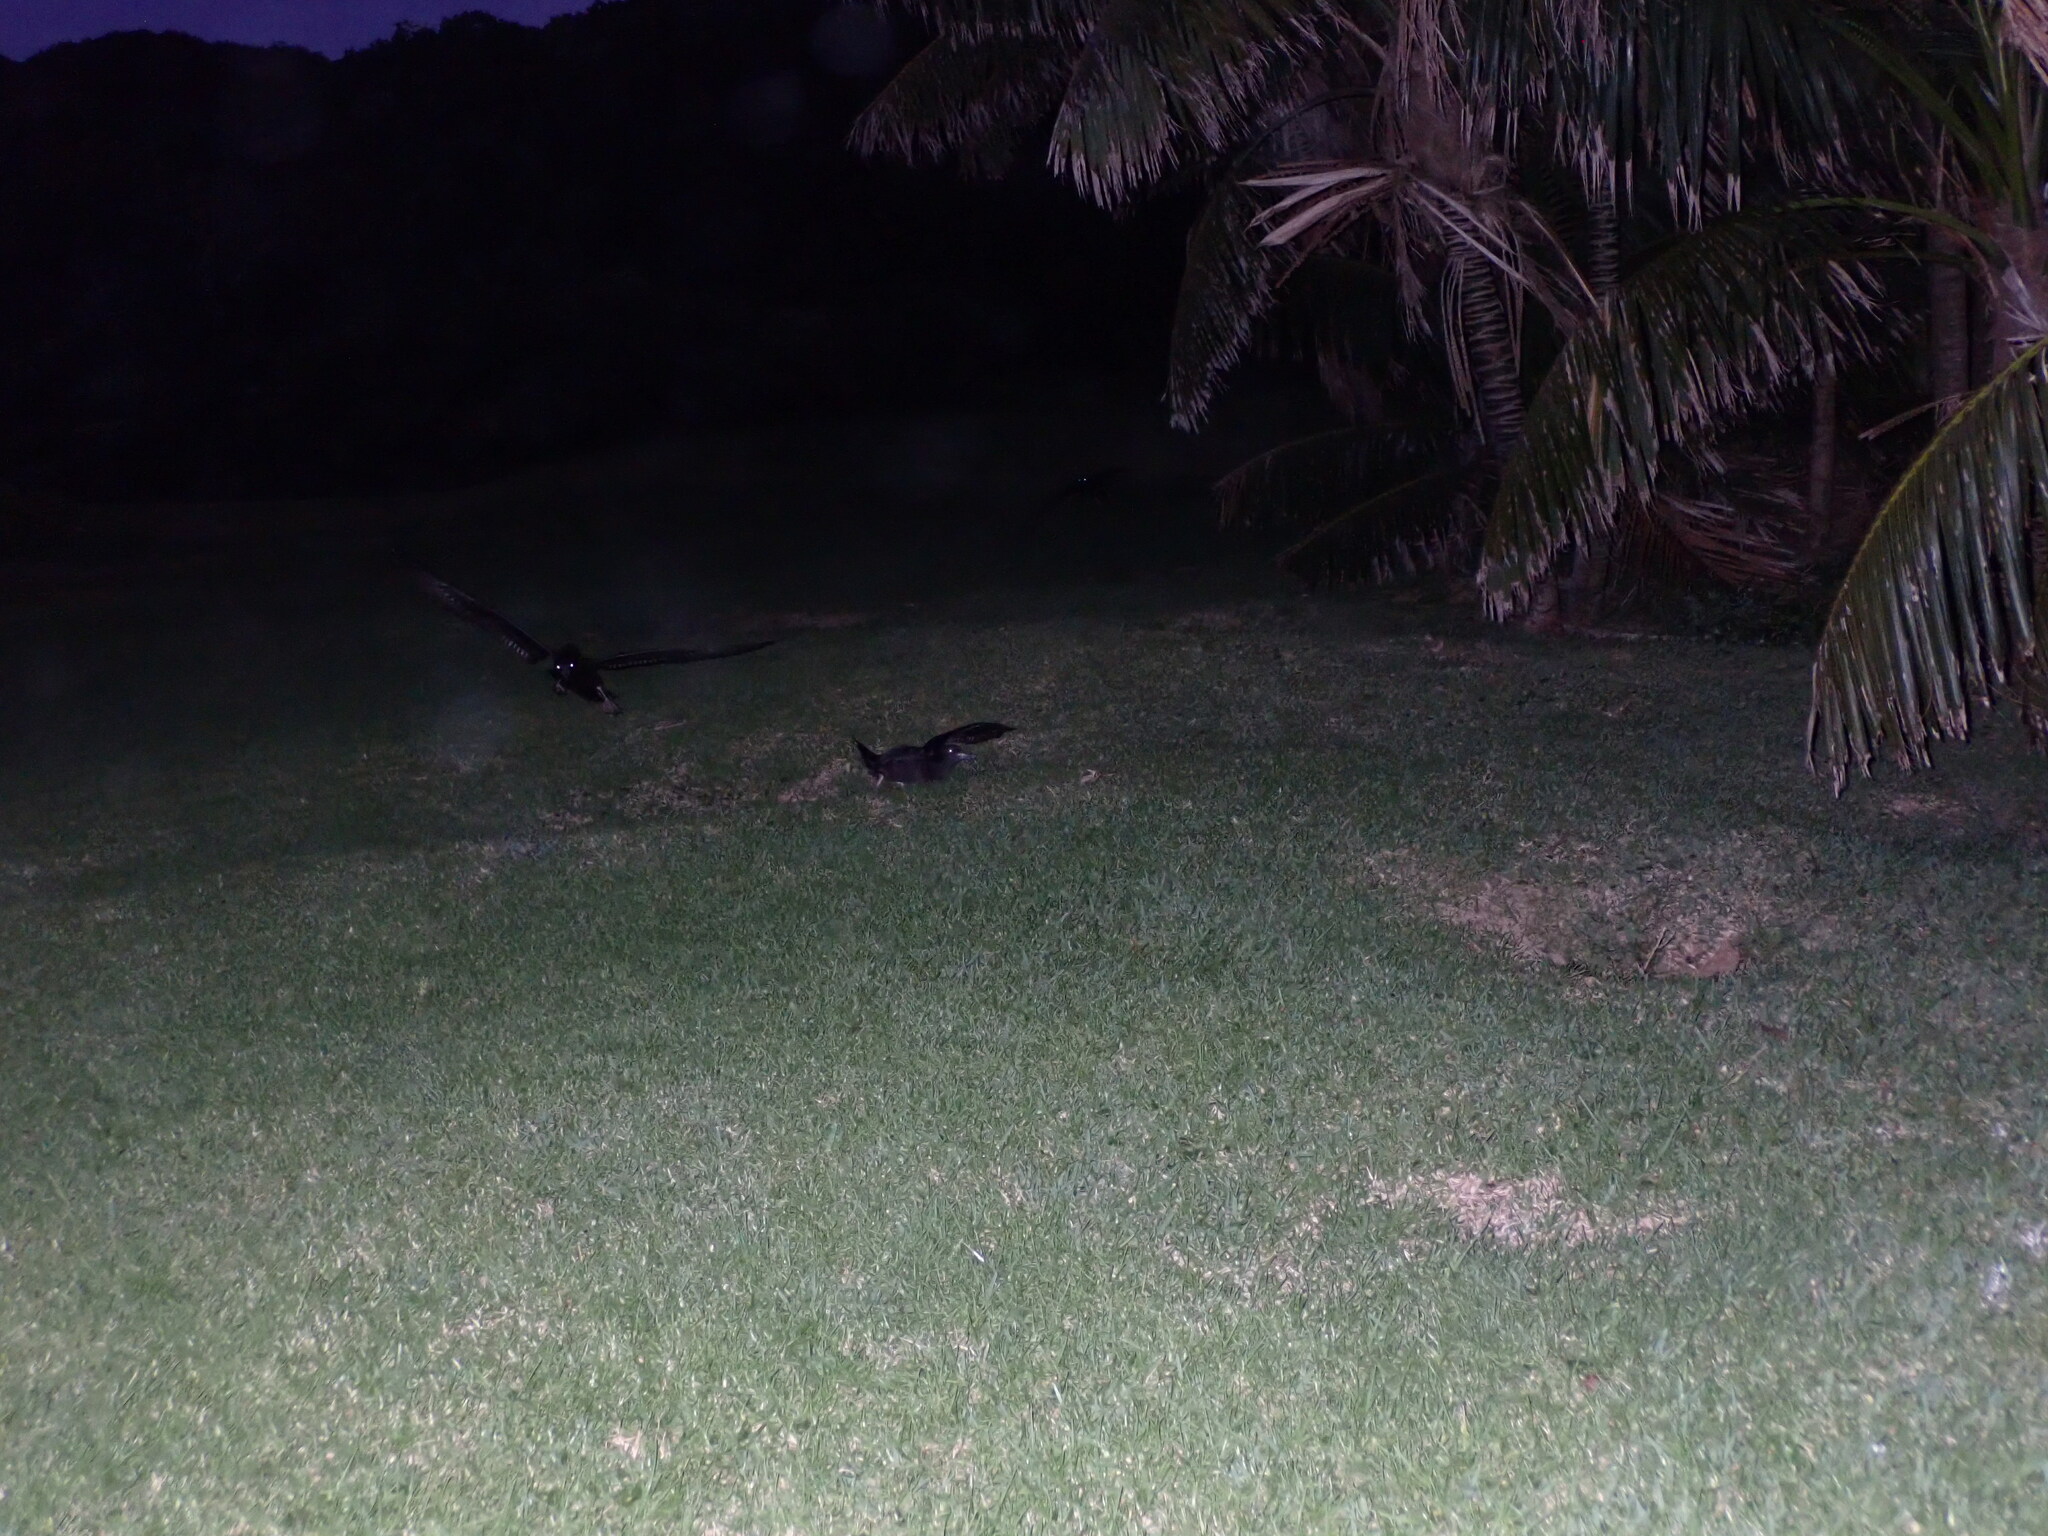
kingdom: Animalia
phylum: Chordata
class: Aves
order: Procellariiformes
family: Procellariidae
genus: Puffinus
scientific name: Puffinus carneipes
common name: Flesh-footed shearwater
